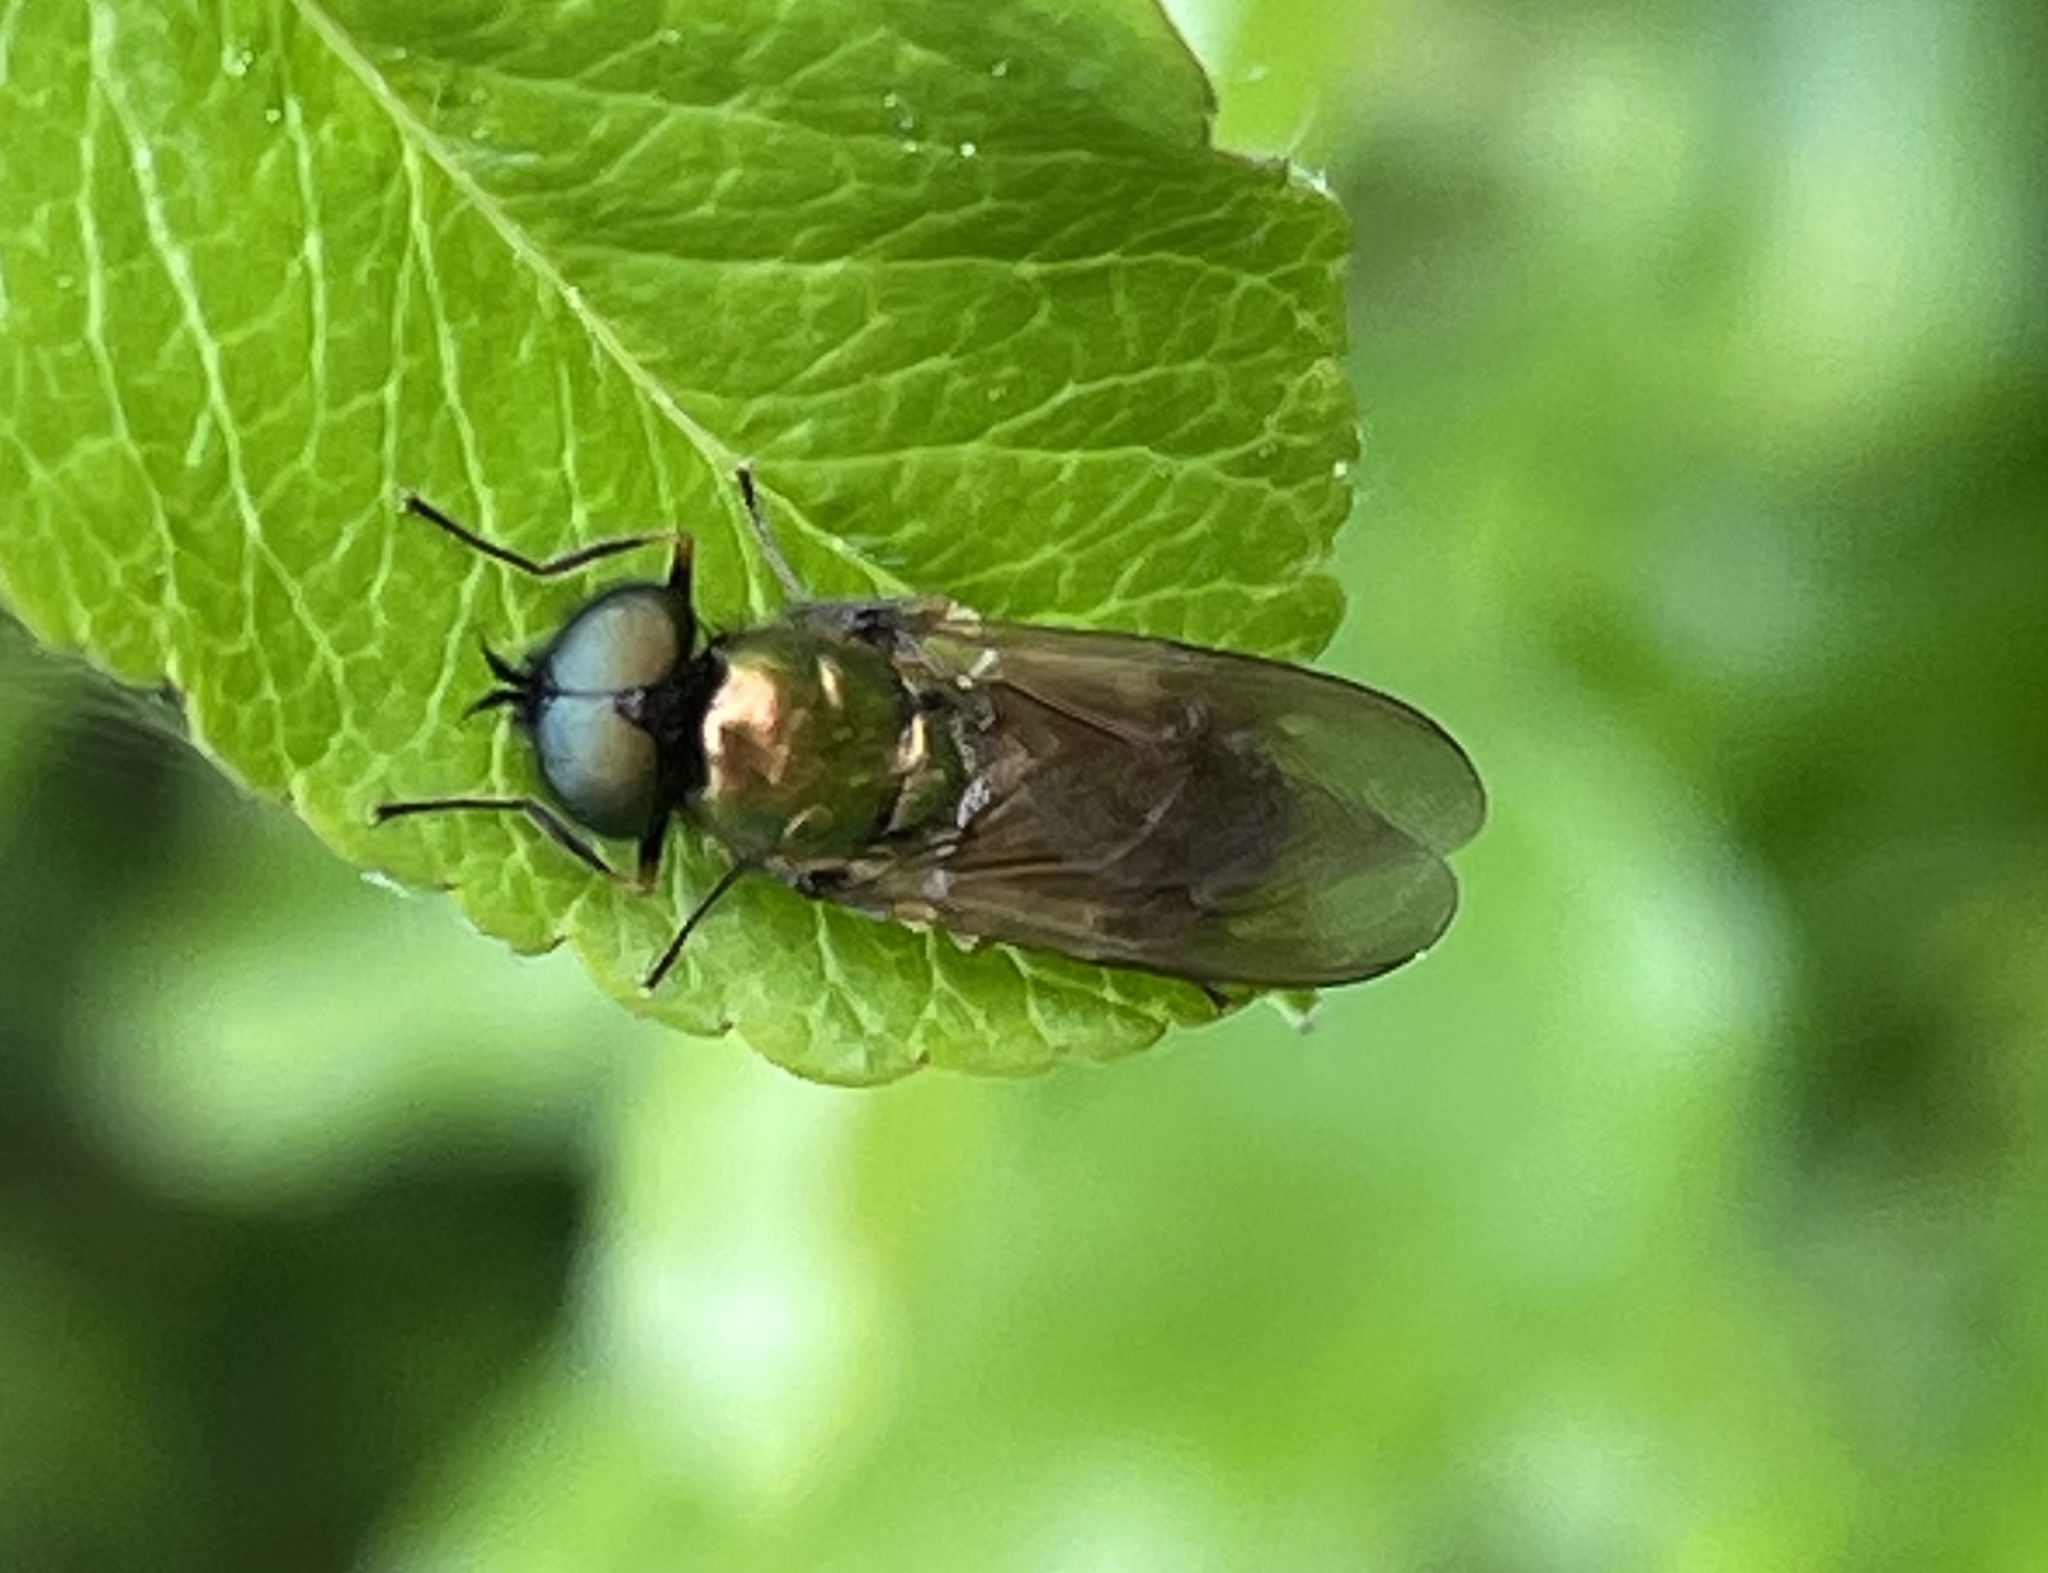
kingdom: Animalia
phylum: Arthropoda
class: Insecta
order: Diptera
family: Stratiomyidae
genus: Chloromyia
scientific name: Chloromyia formosa
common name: Soldier fly
